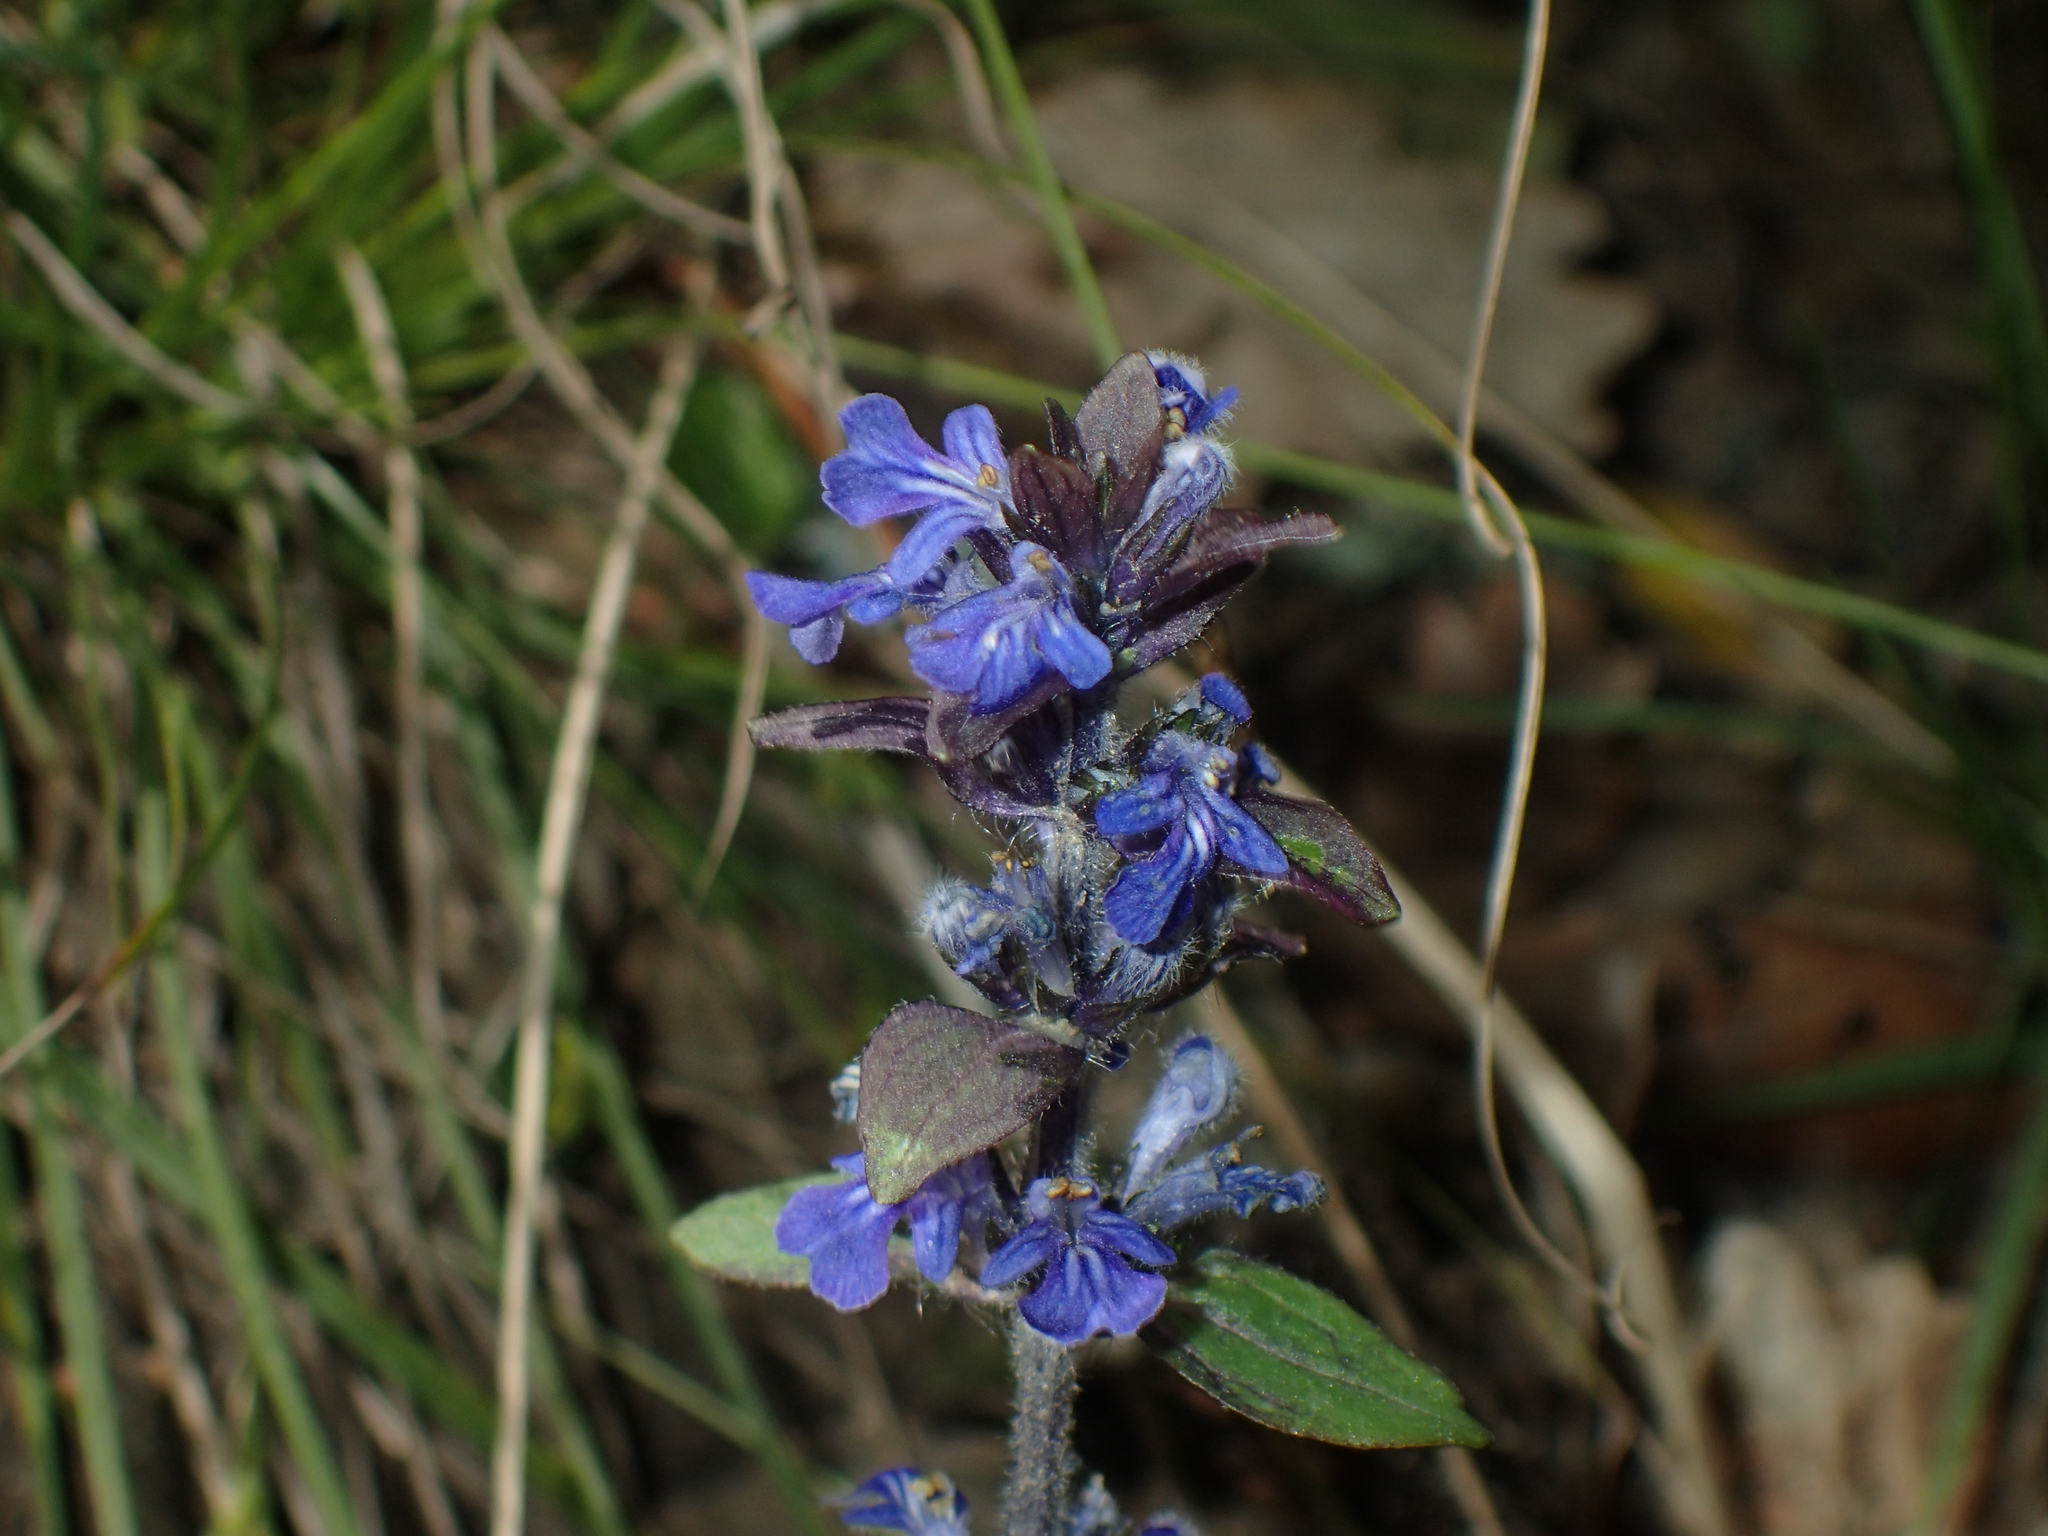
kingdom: Plantae
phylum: Tracheophyta
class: Magnoliopsida
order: Lamiales
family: Lamiaceae
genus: Ajuga
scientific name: Ajuga reptans
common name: Bugle
